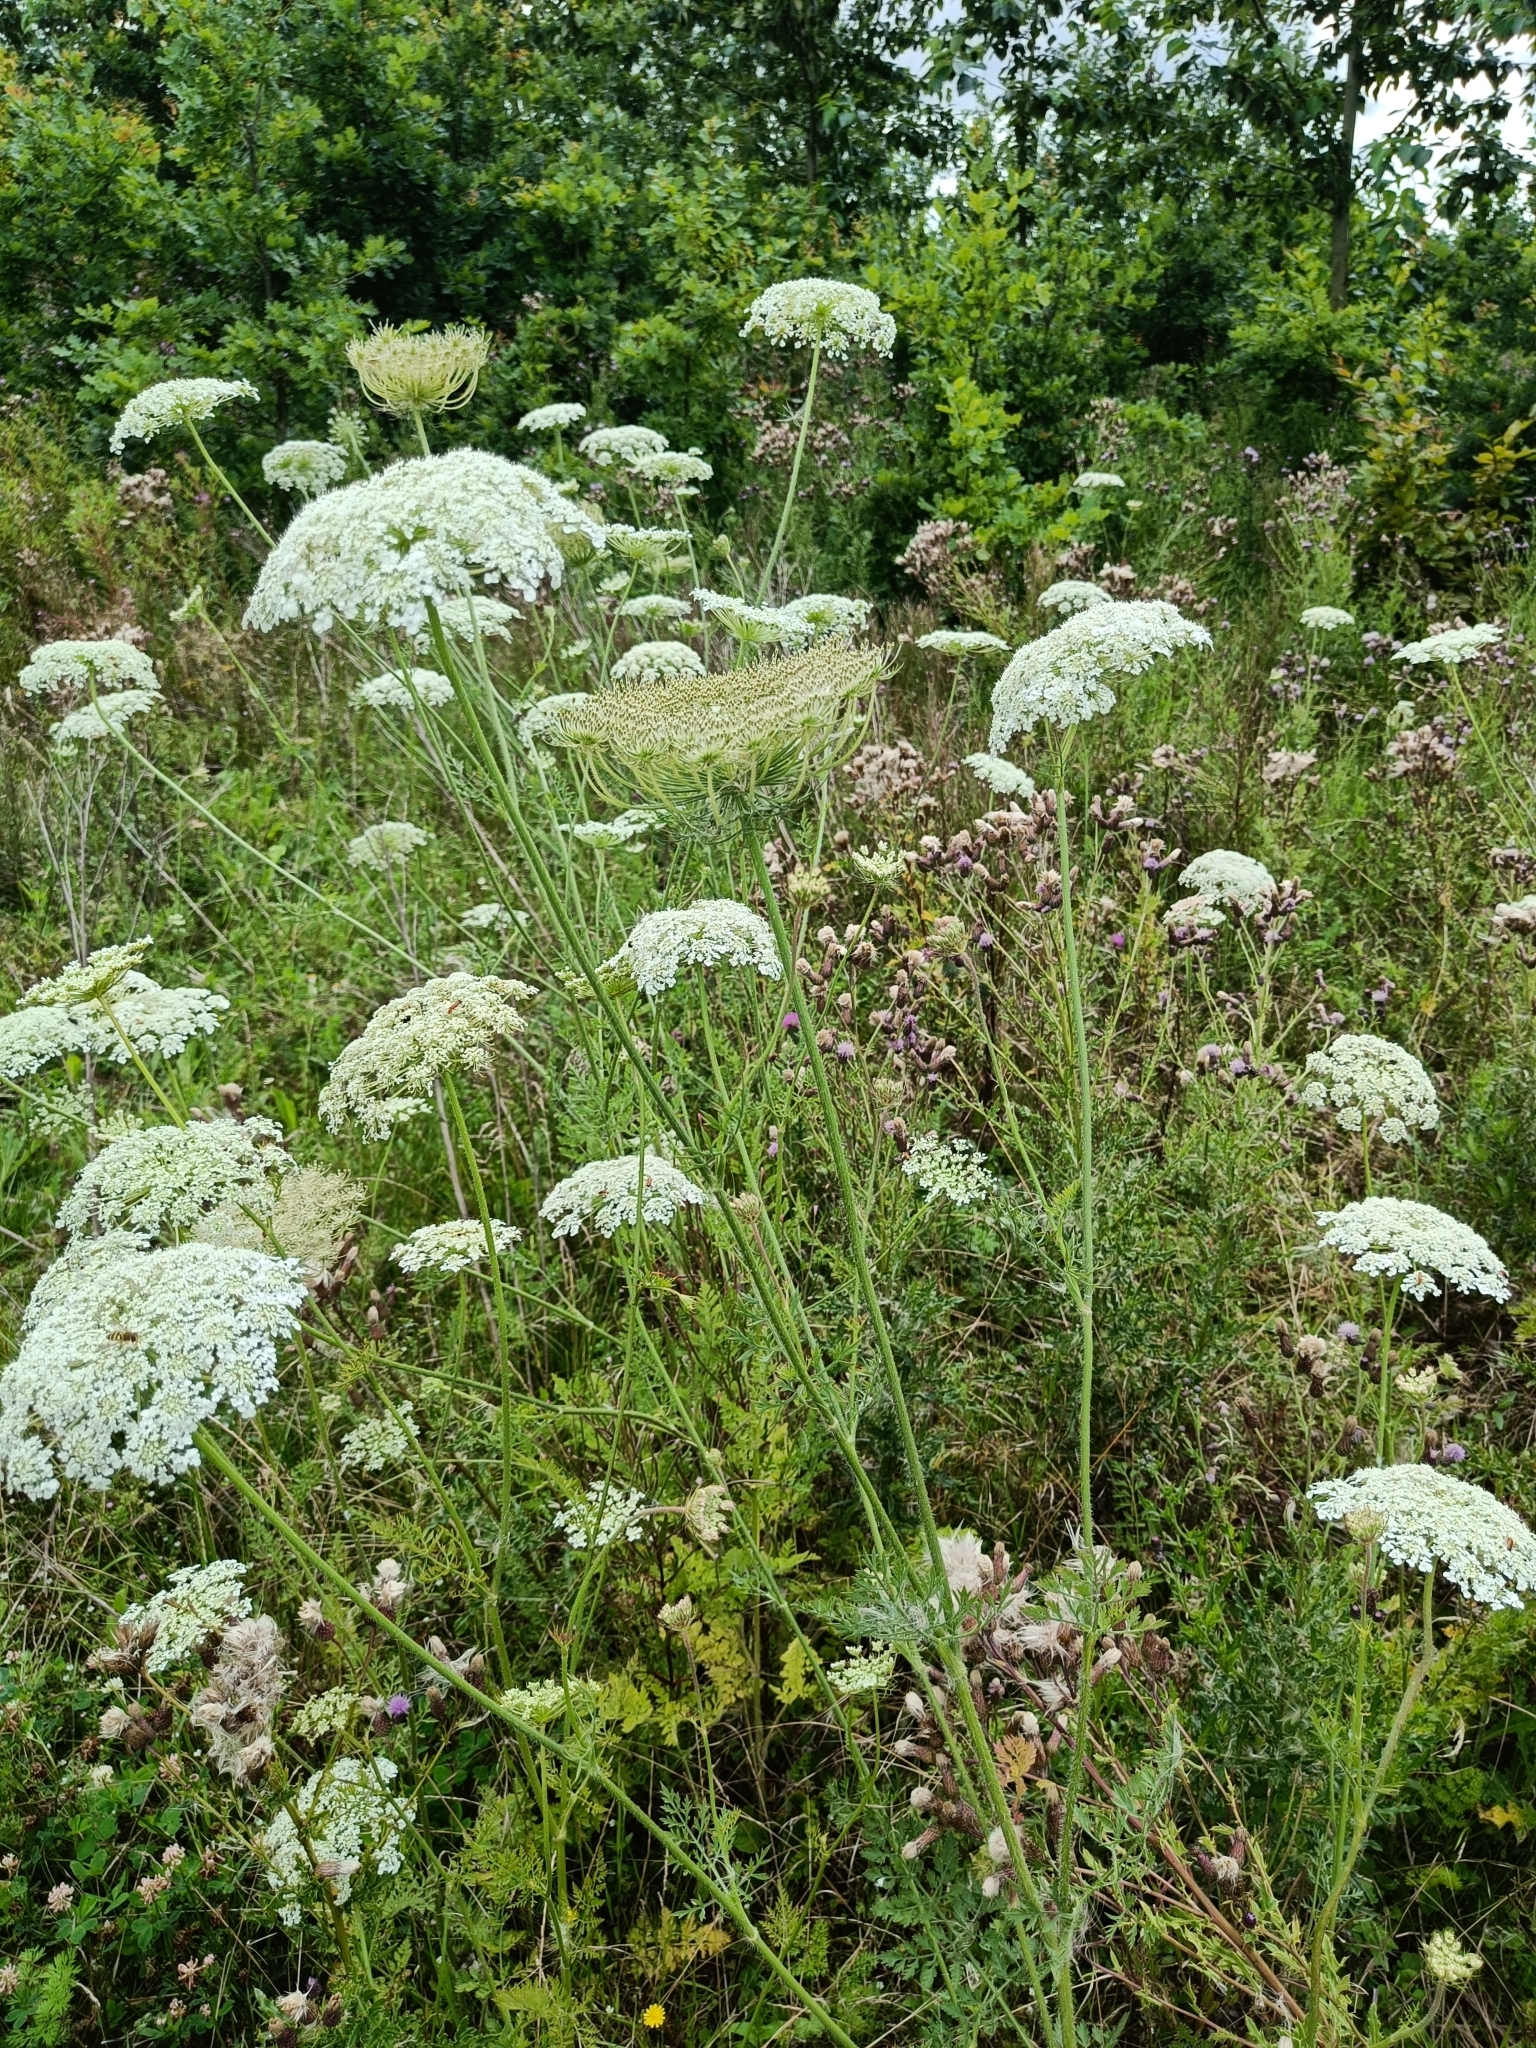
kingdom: Plantae
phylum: Tracheophyta
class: Magnoliopsida
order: Apiales
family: Apiaceae
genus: Daucus
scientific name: Daucus carota
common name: Wild carrot
